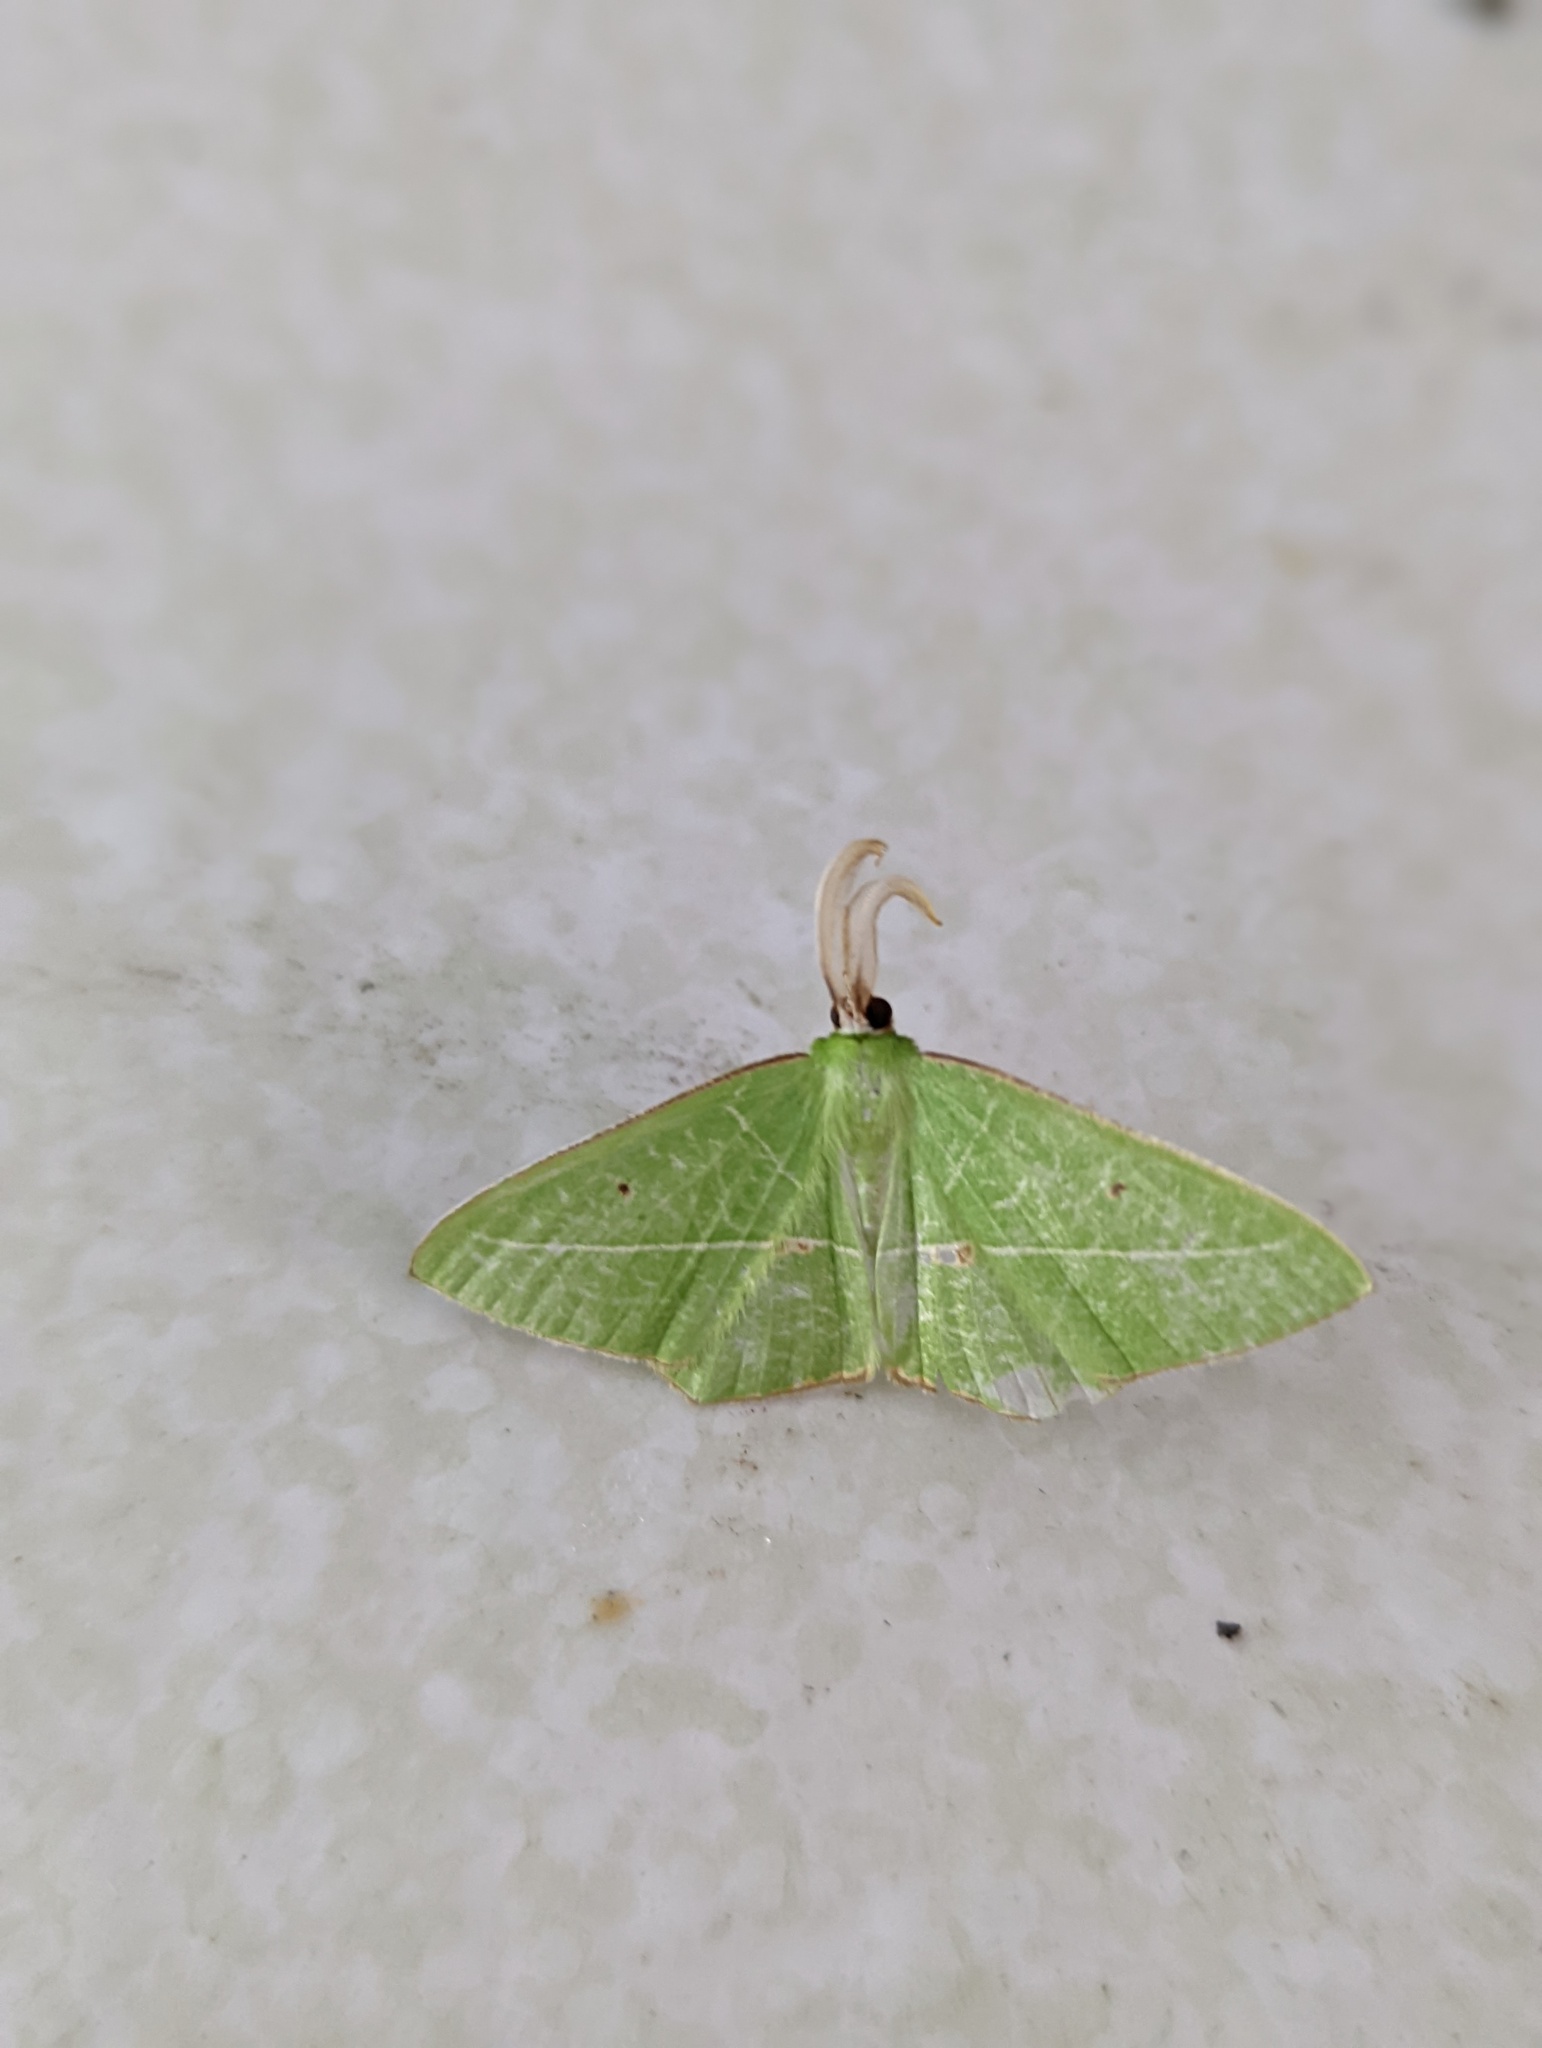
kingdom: Animalia
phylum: Arthropoda
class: Insecta
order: Lepidoptera
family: Geometridae
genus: Tanaoctenia
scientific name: Tanaoctenia haliaria
